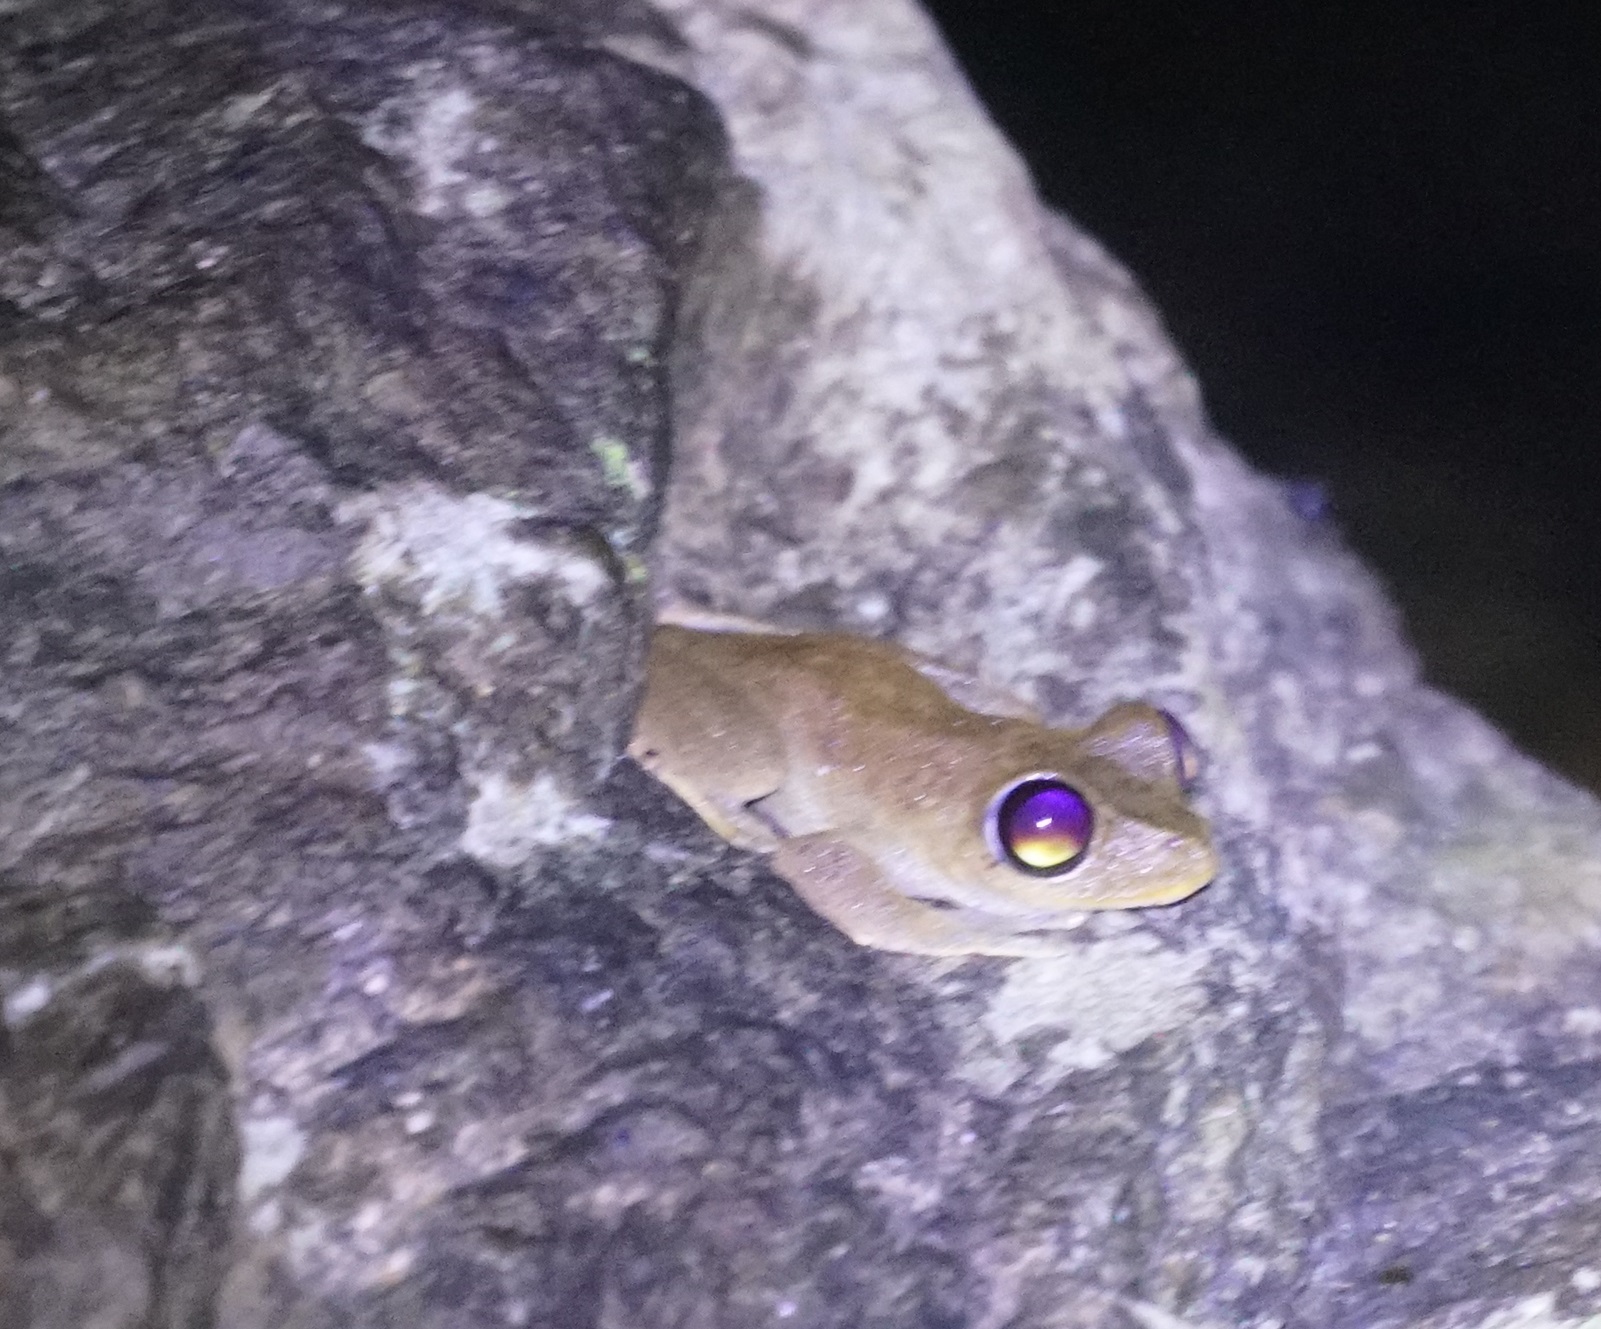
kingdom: Animalia
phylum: Chordata
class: Amphibia
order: Anura
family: Pelodryadidae
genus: Ranoidea
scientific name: Ranoidea dayi
